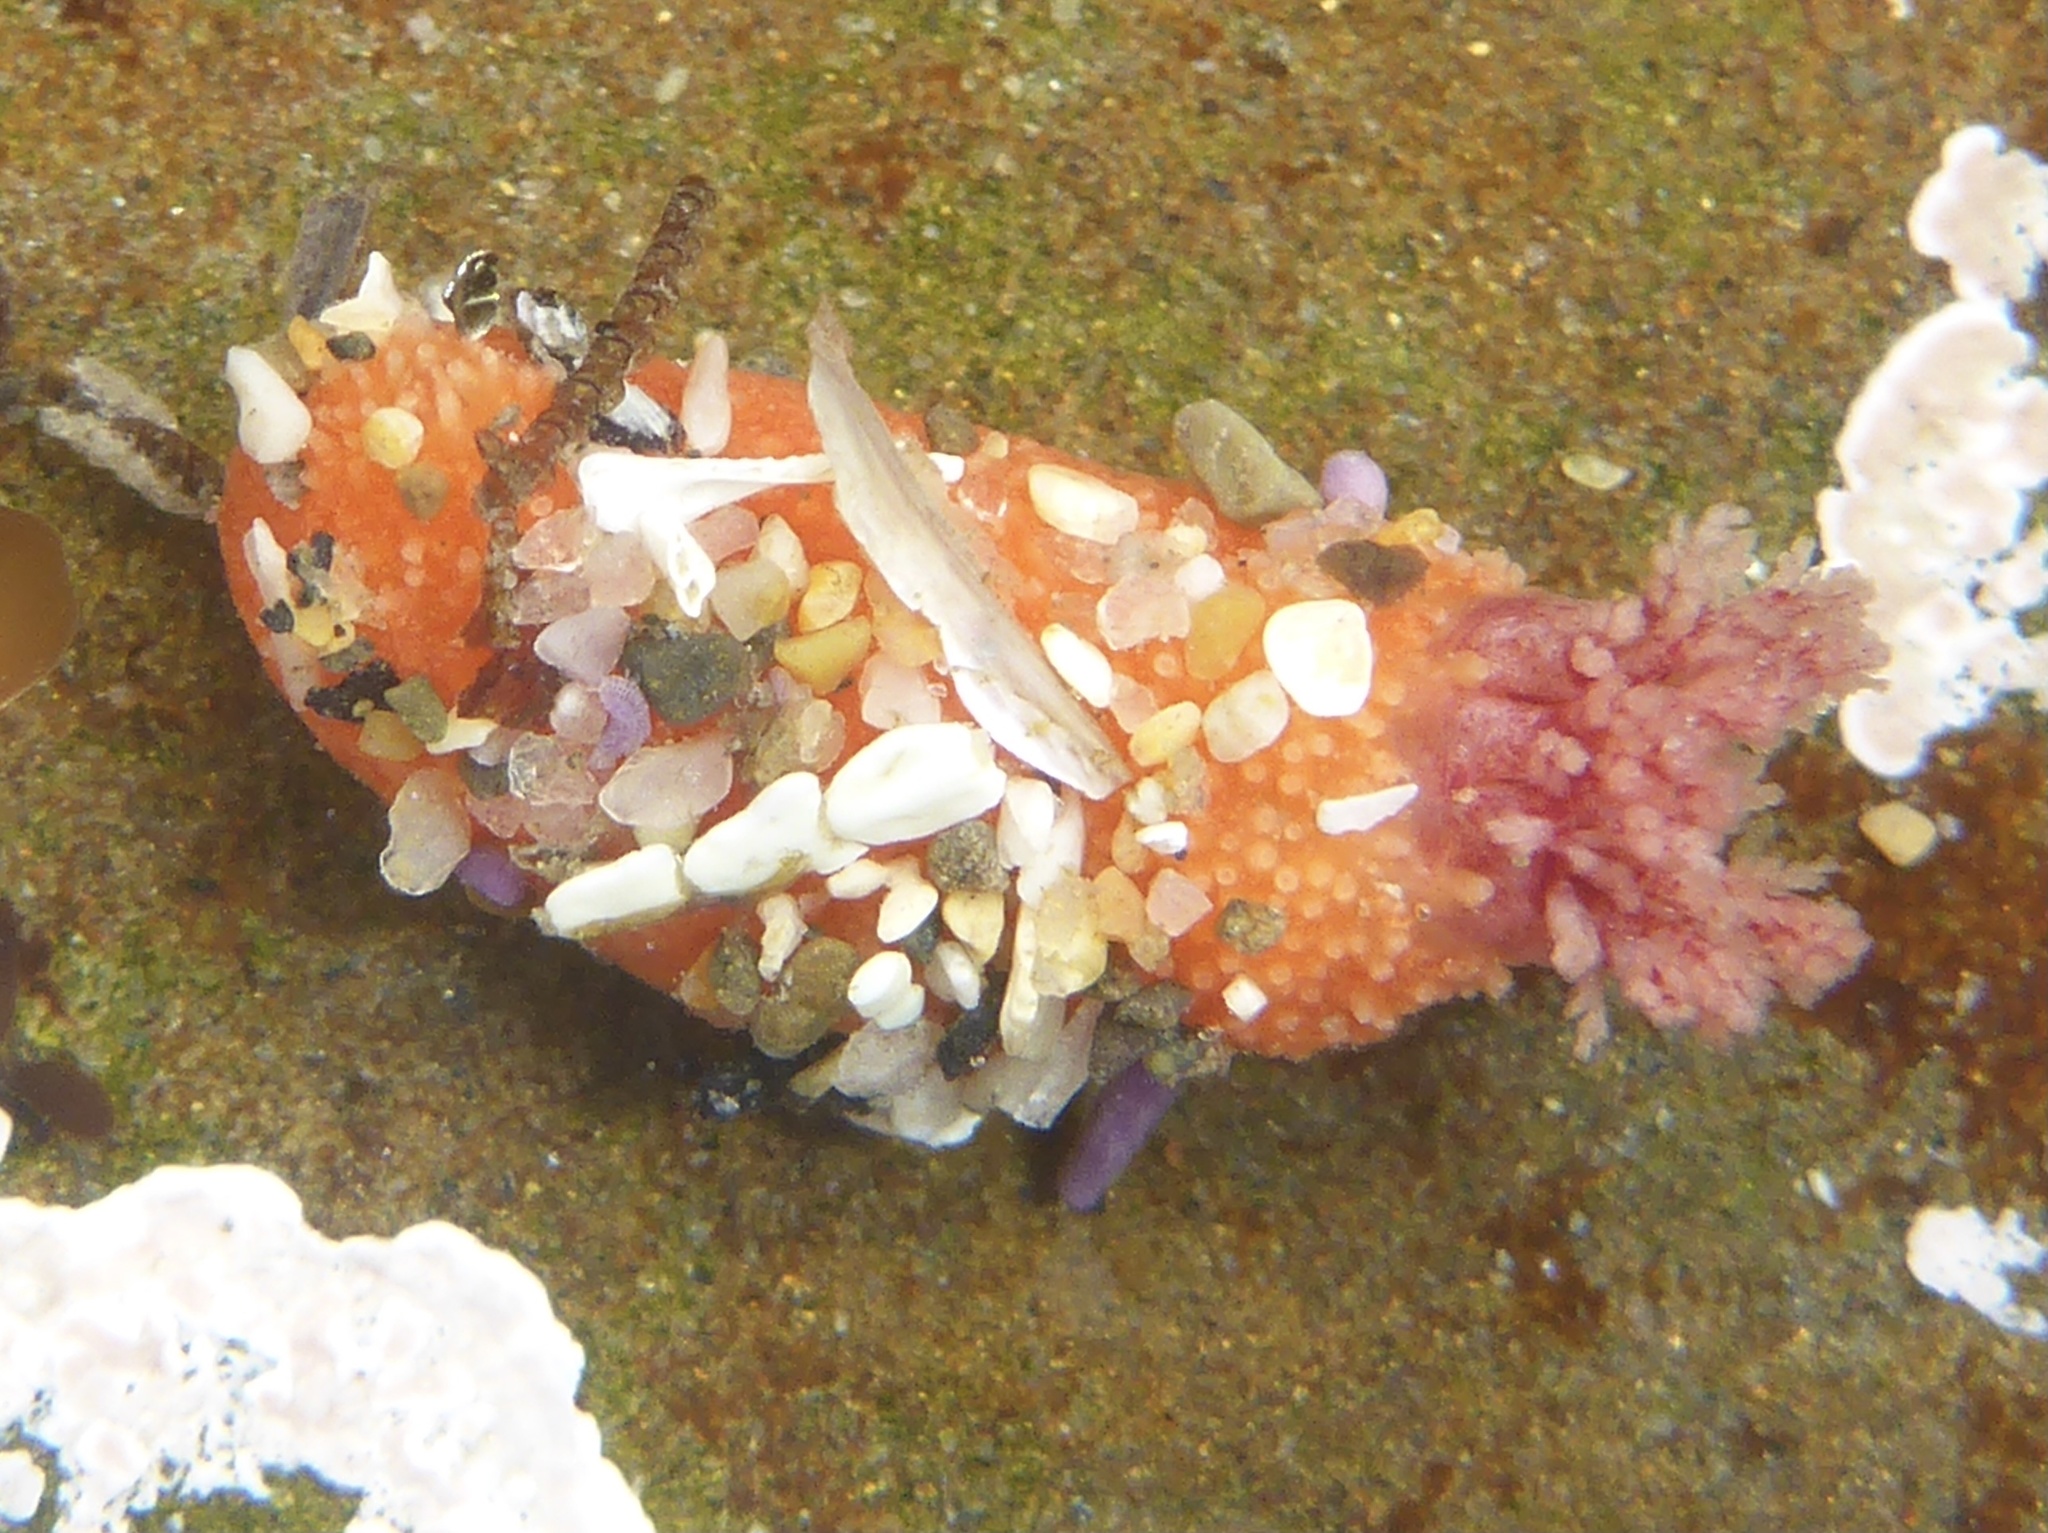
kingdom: Animalia
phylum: Echinodermata
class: Holothuroidea
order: Dendrochirotida
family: Psolidae
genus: Lissothuria
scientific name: Lissothuria nutriens
